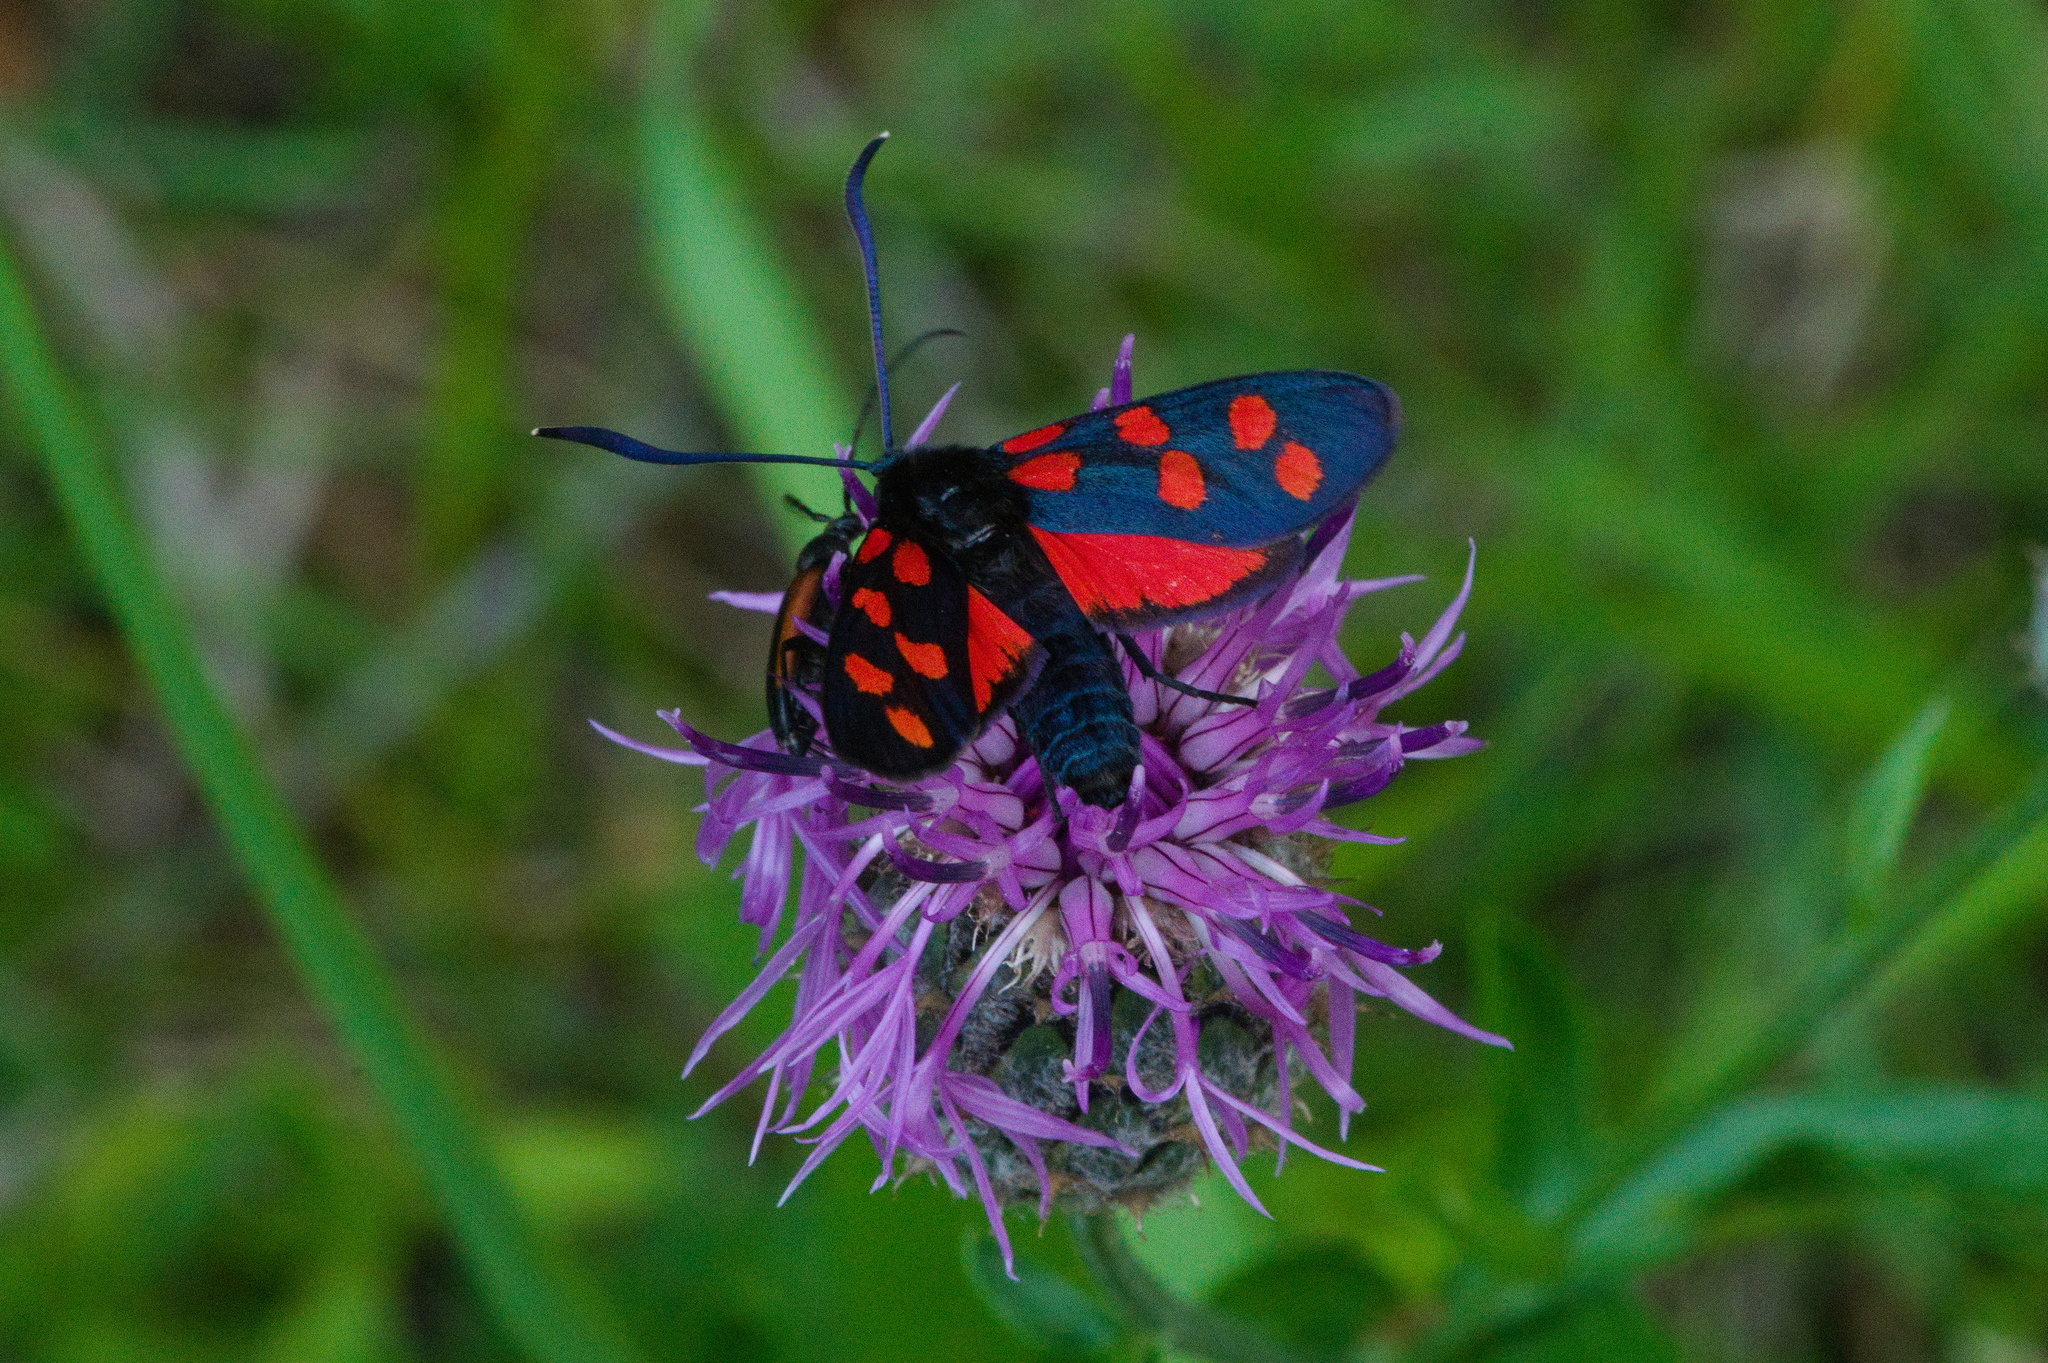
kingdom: Animalia
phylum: Arthropoda
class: Insecta
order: Lepidoptera
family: Zygaenidae
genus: Zygaena
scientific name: Zygaena transalpina
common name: Southern six spot burnet
